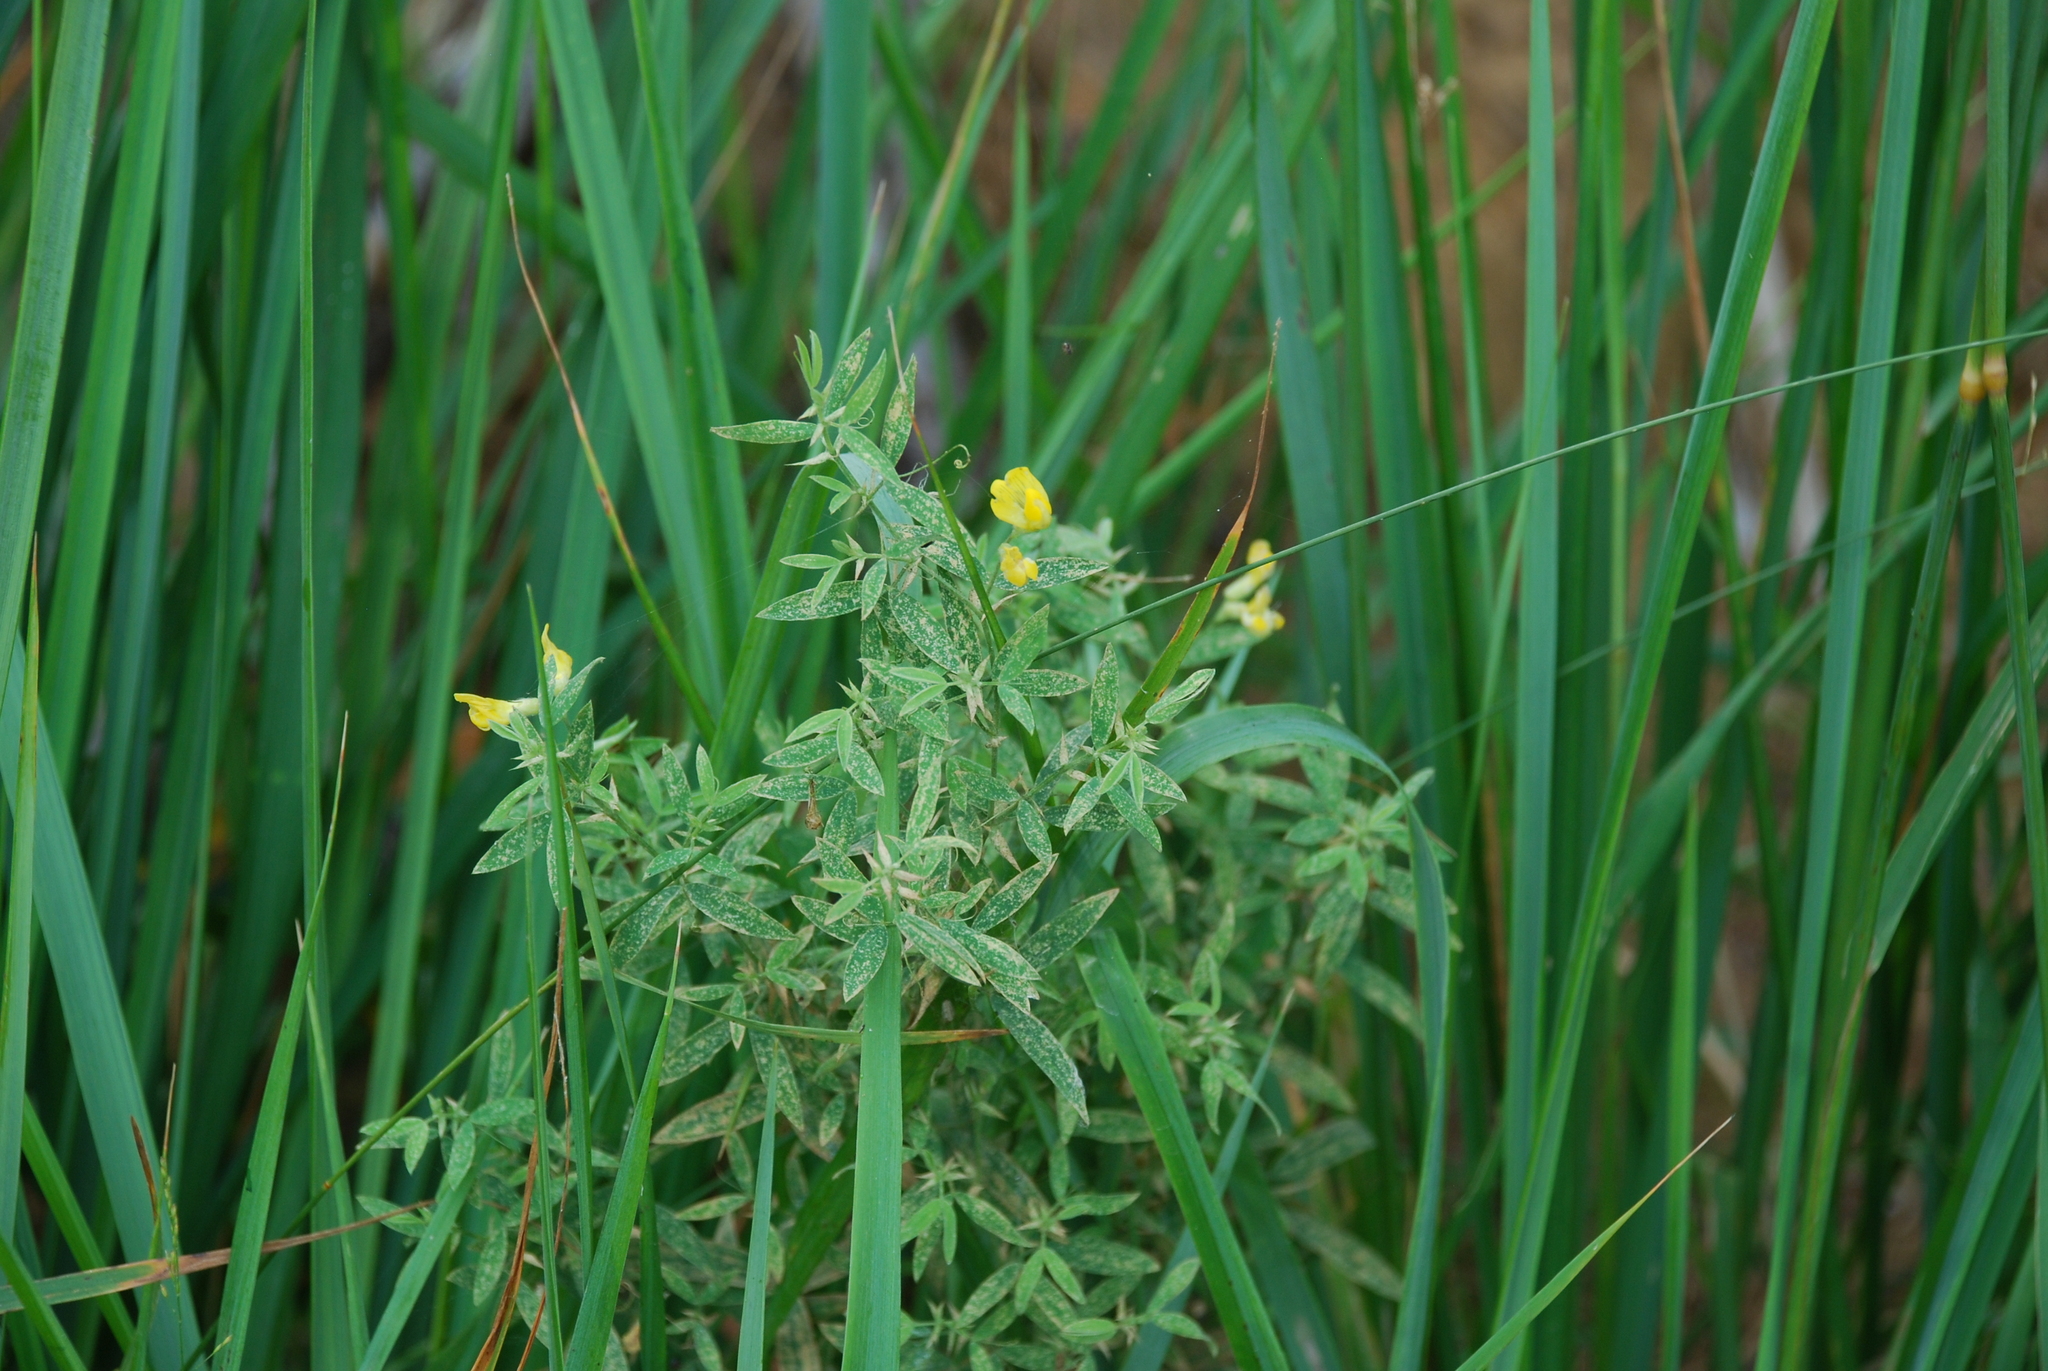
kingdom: Plantae
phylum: Tracheophyta
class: Magnoliopsida
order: Fabales
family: Fabaceae
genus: Lathyrus
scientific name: Lathyrus pratensis
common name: Meadow vetchling
